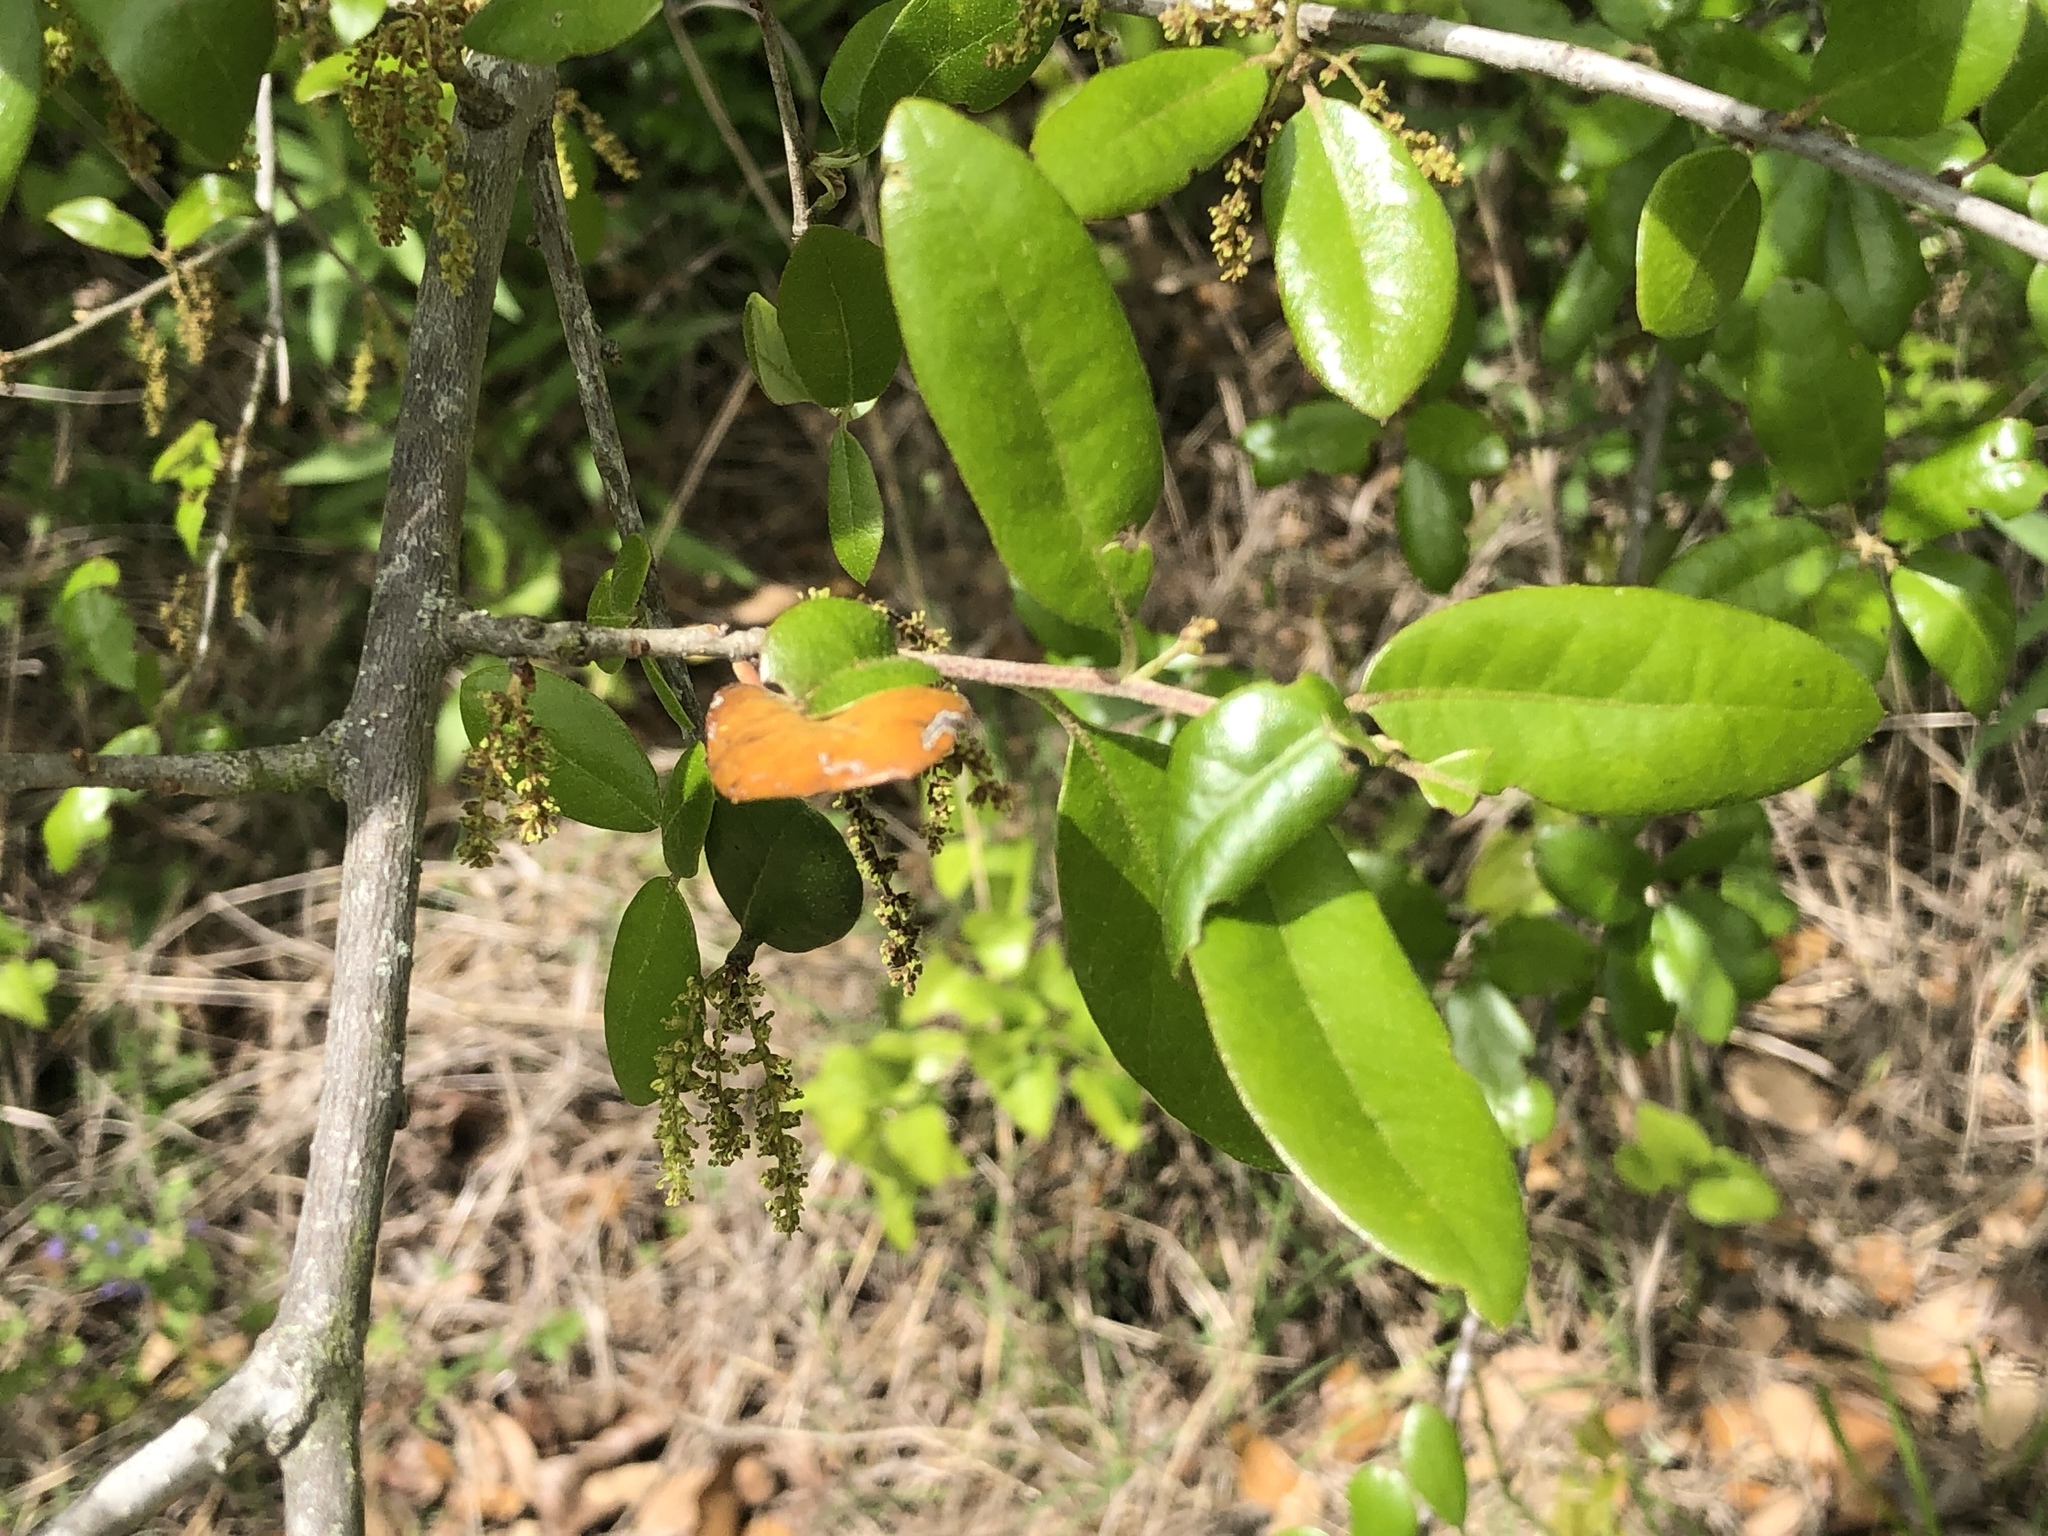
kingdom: Plantae
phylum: Tracheophyta
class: Magnoliopsida
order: Fagales
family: Fagaceae
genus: Quercus
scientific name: Quercus fusiformis
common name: Texas live oak
